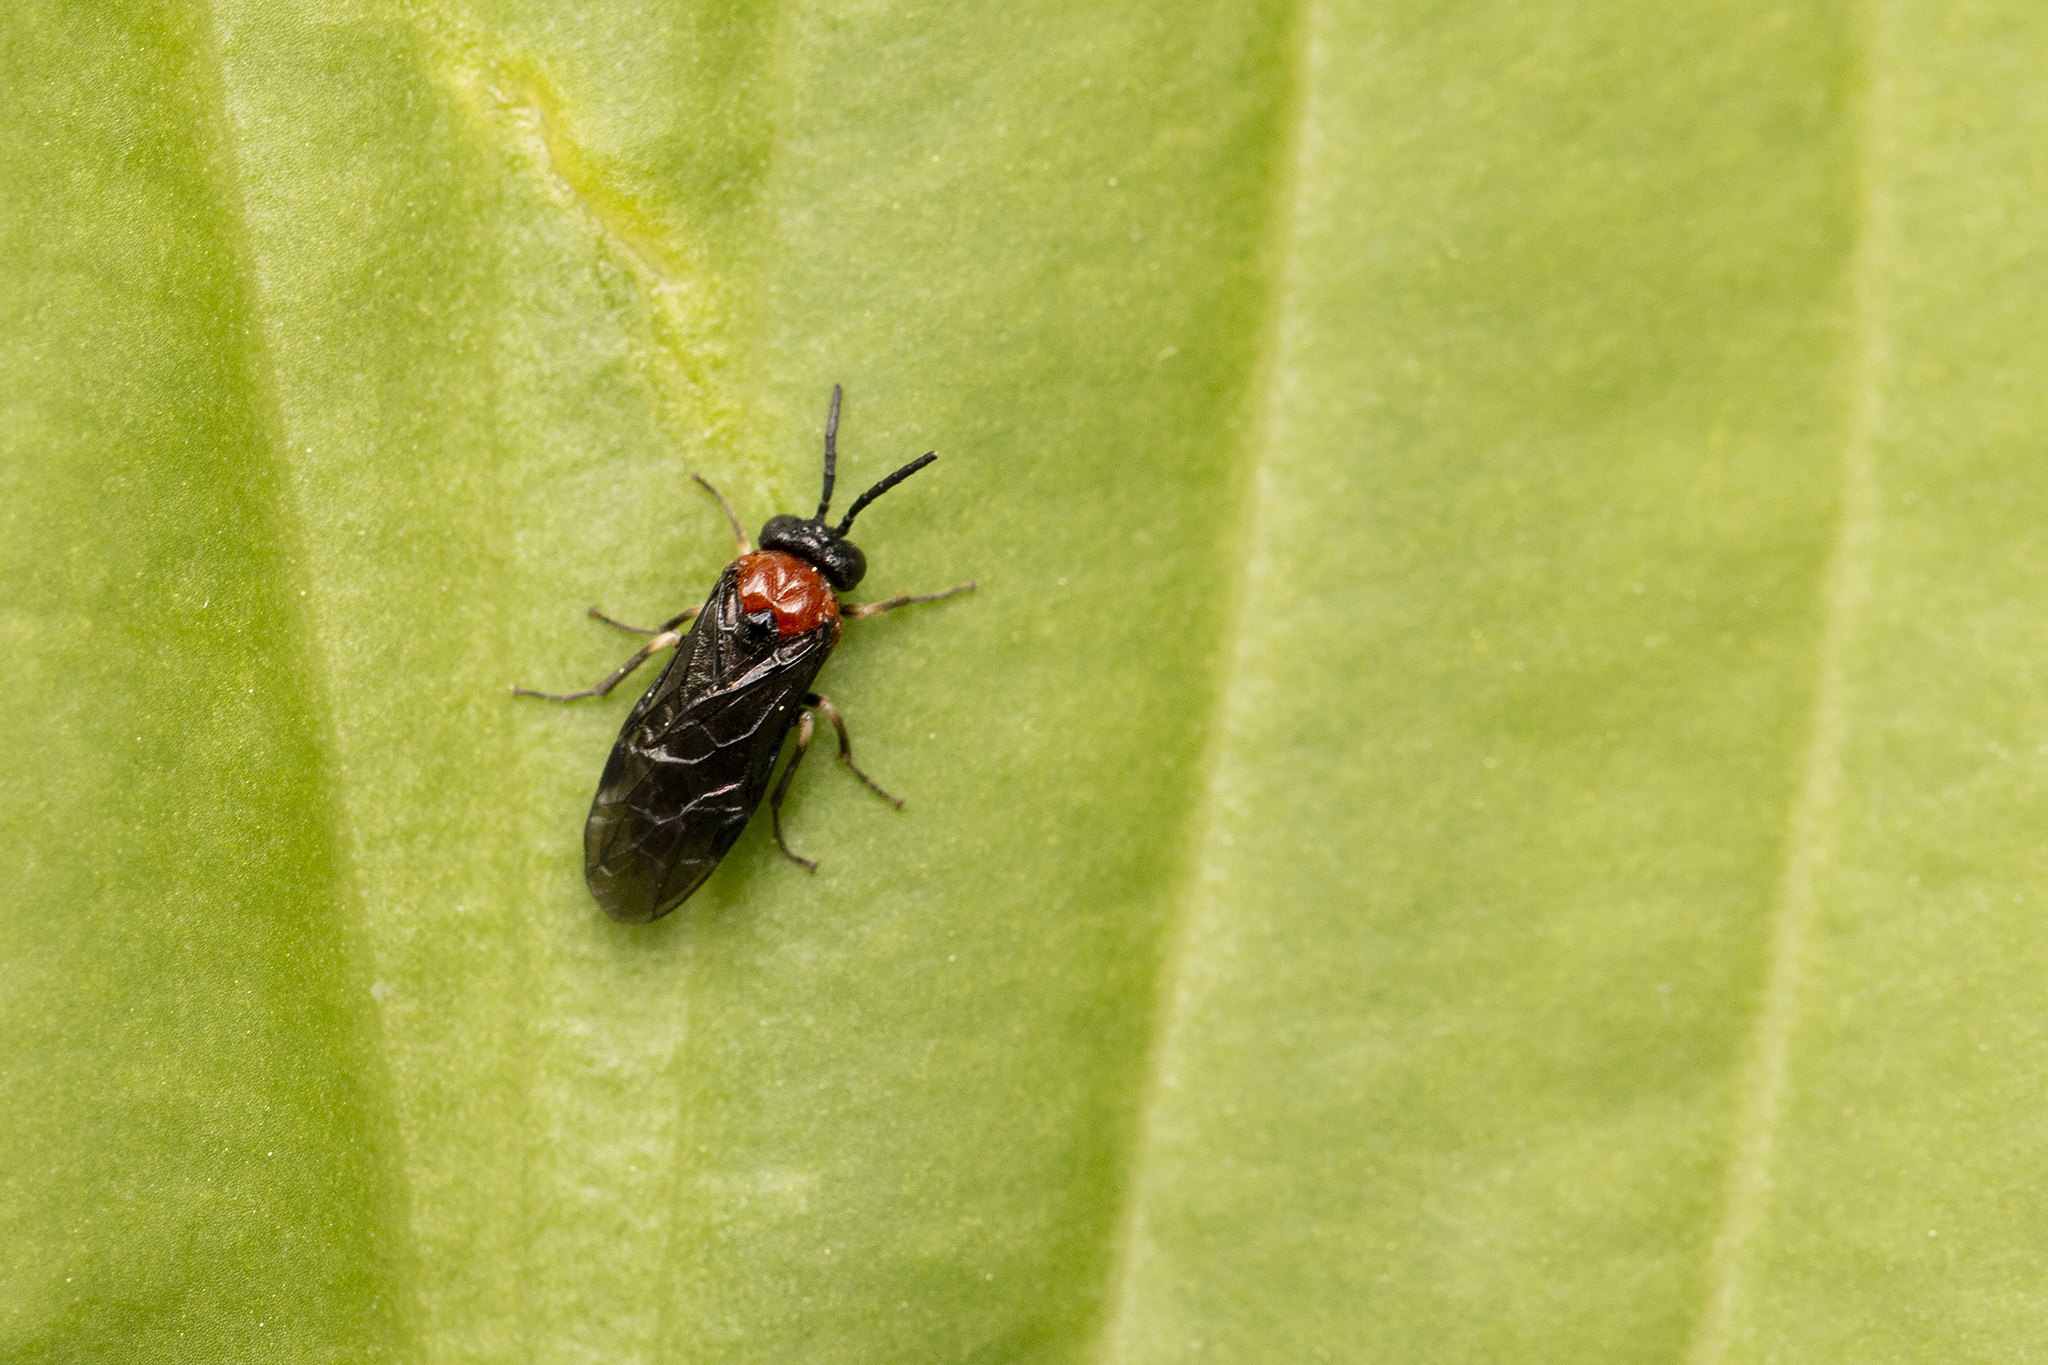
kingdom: Animalia
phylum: Arthropoda
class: Insecta
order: Hymenoptera
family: Tenthredinidae
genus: Eutomostethus
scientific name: Eutomostethus ephippium
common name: Tenthredid wasp
